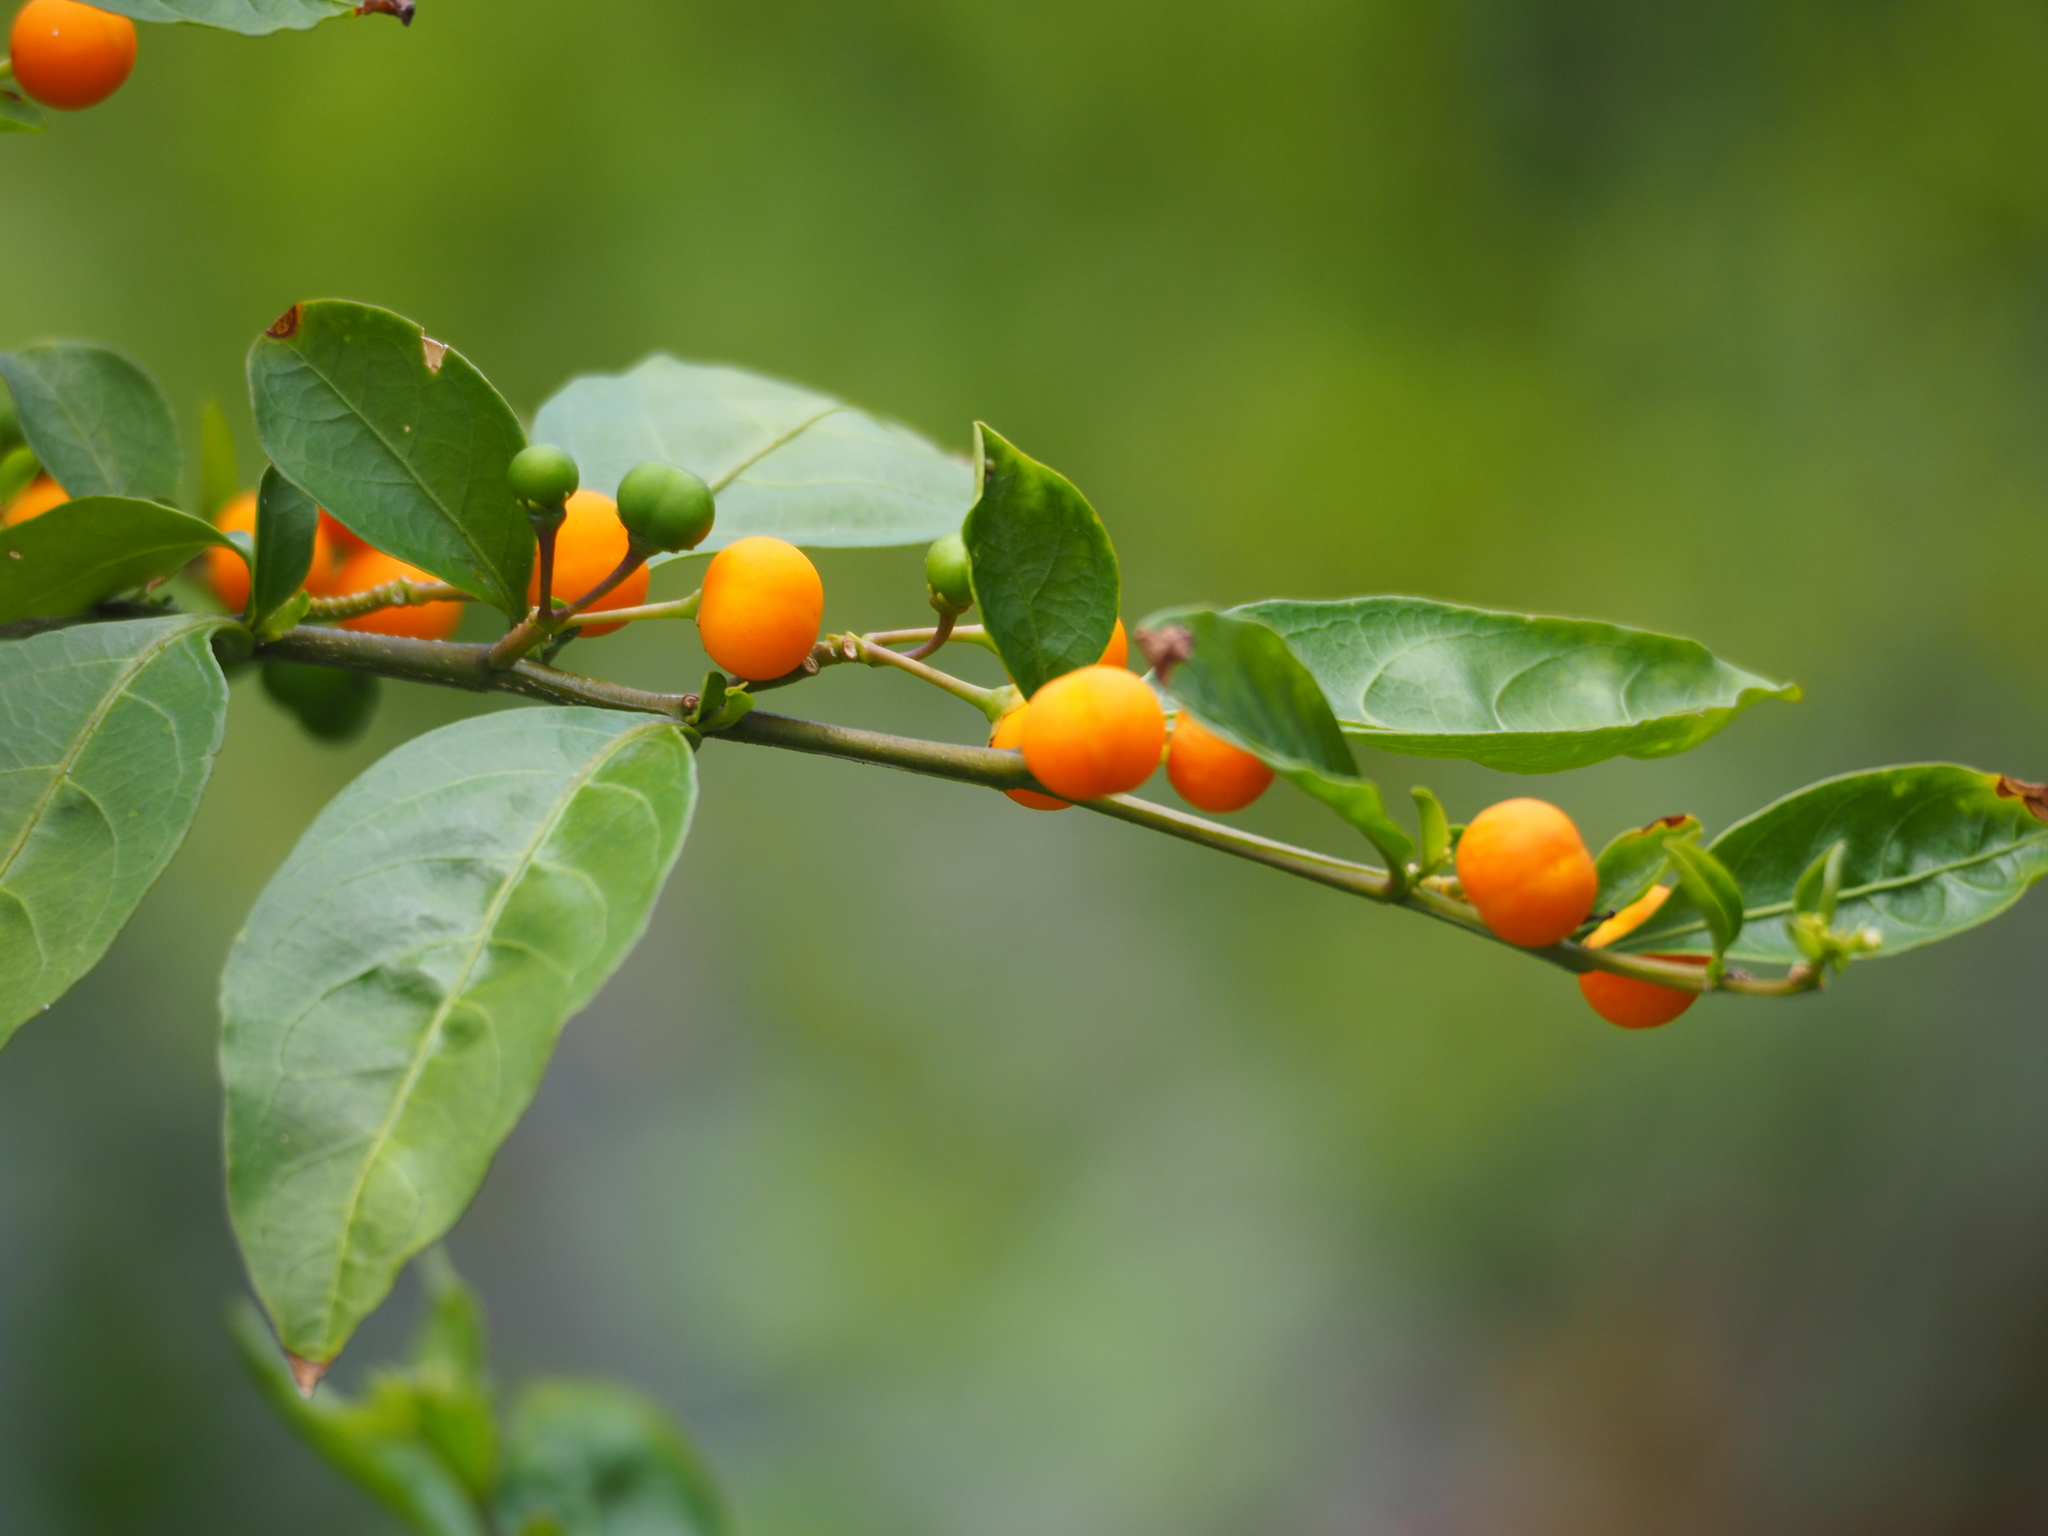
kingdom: Plantae
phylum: Tracheophyta
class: Magnoliopsida
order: Solanales
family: Solanaceae
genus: Solanum
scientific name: Solanum diphyllum
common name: Twoleaf nightshade
